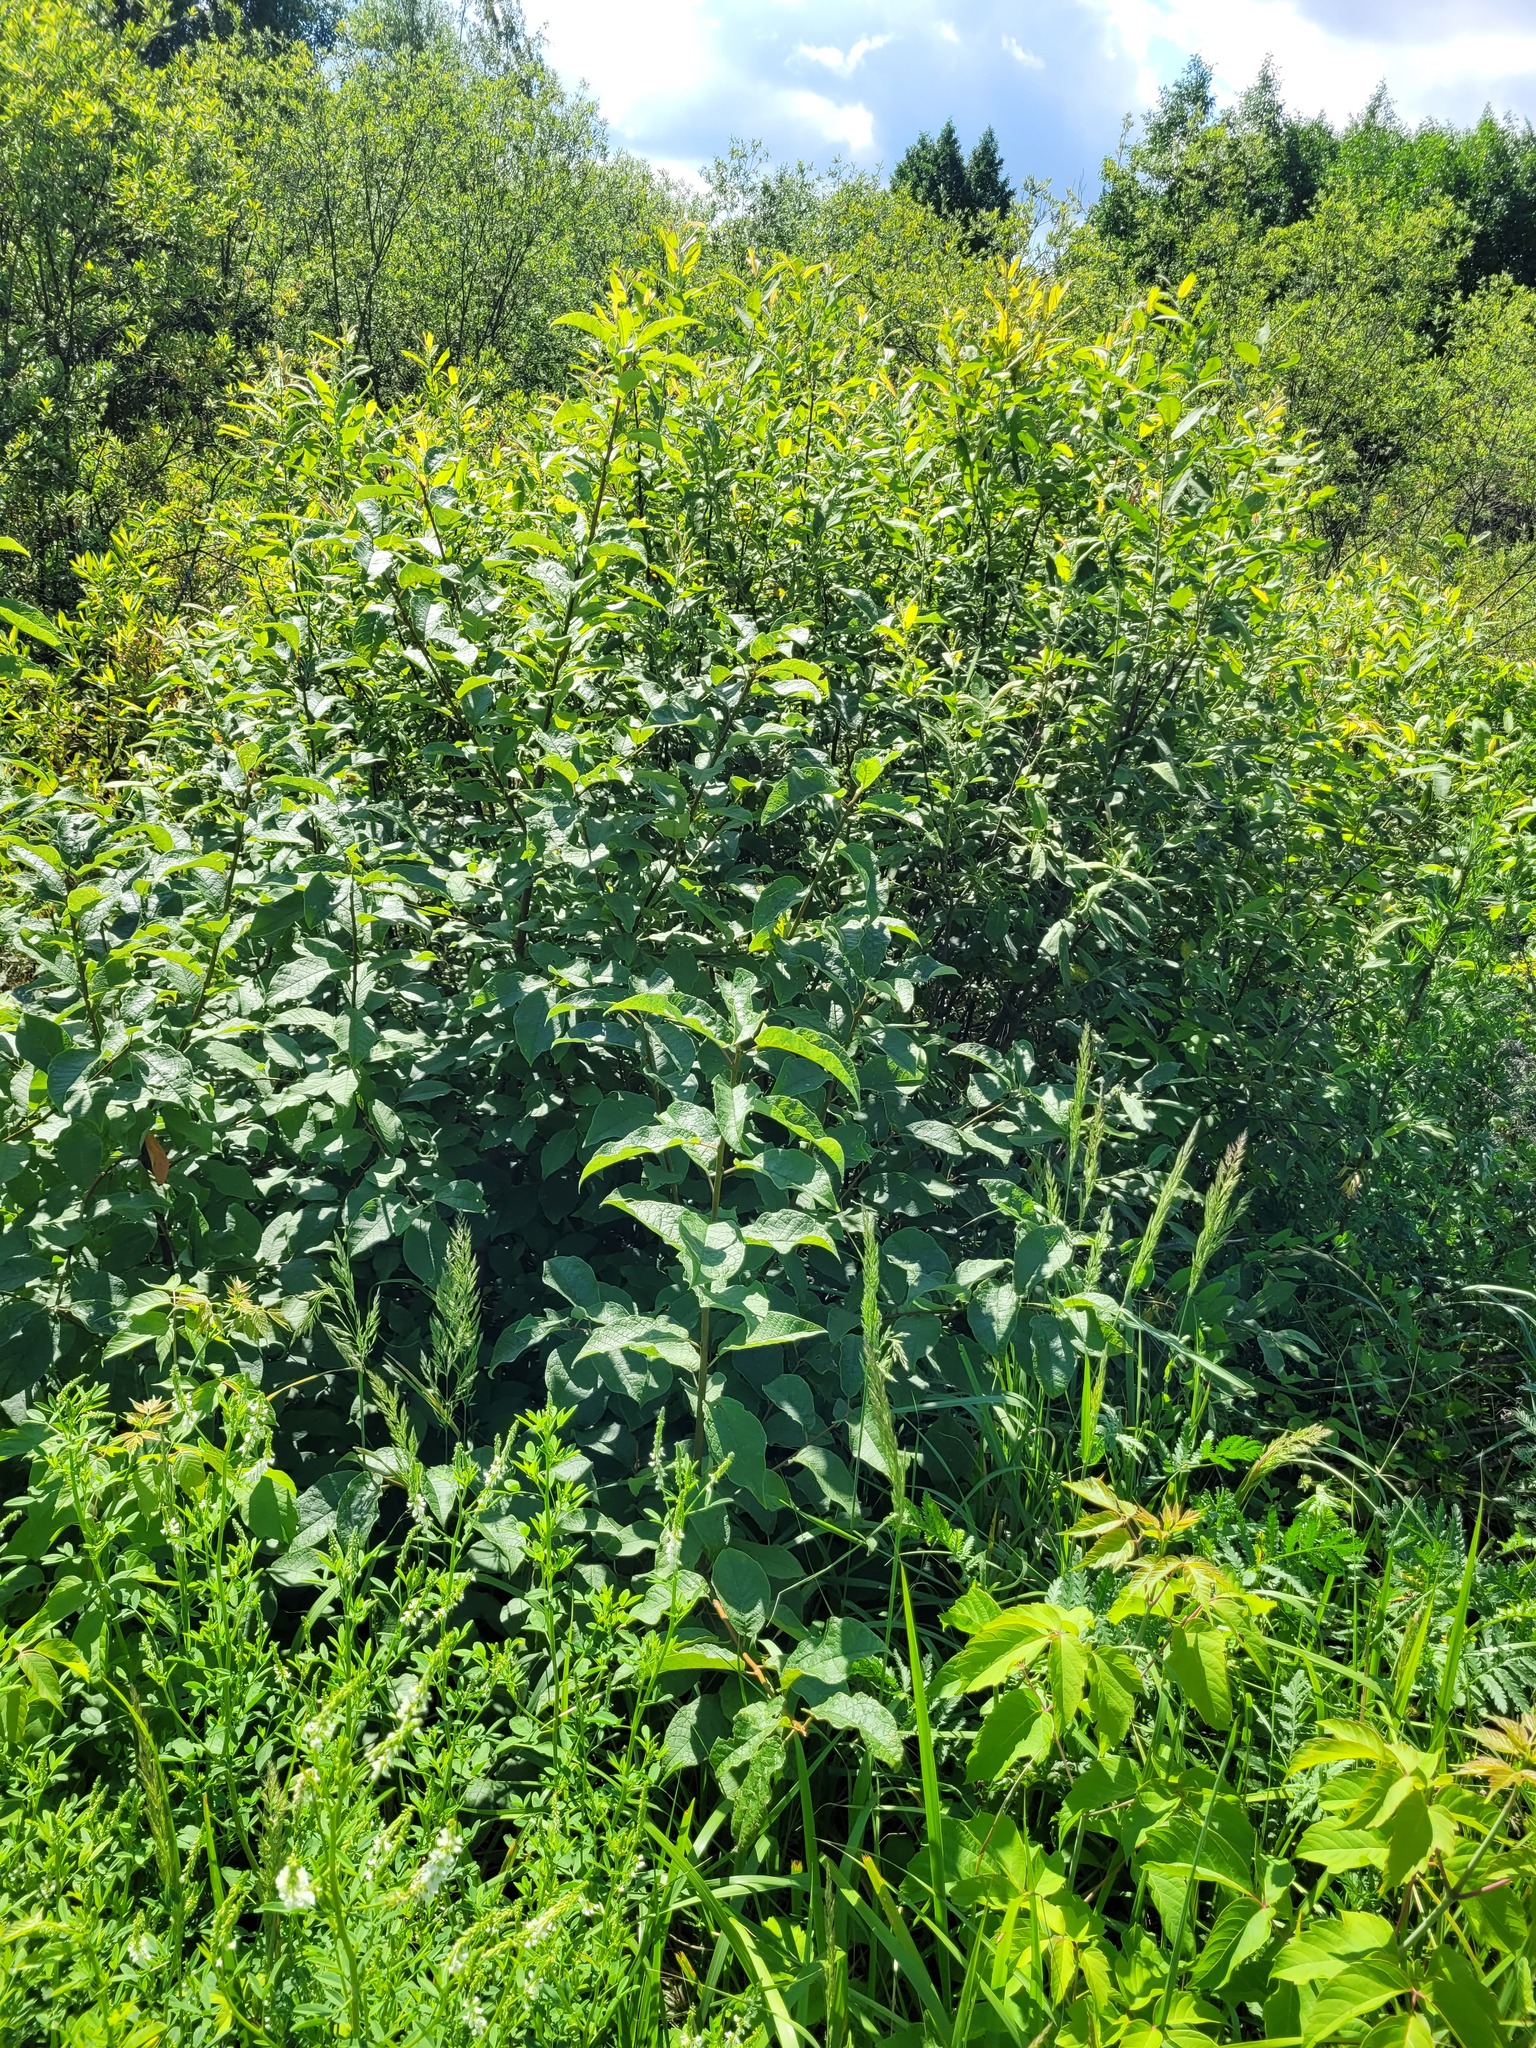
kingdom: Plantae
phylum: Tracheophyta
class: Magnoliopsida
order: Rosales
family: Rosaceae
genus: Prunus
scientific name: Prunus padus
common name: Bird cherry
